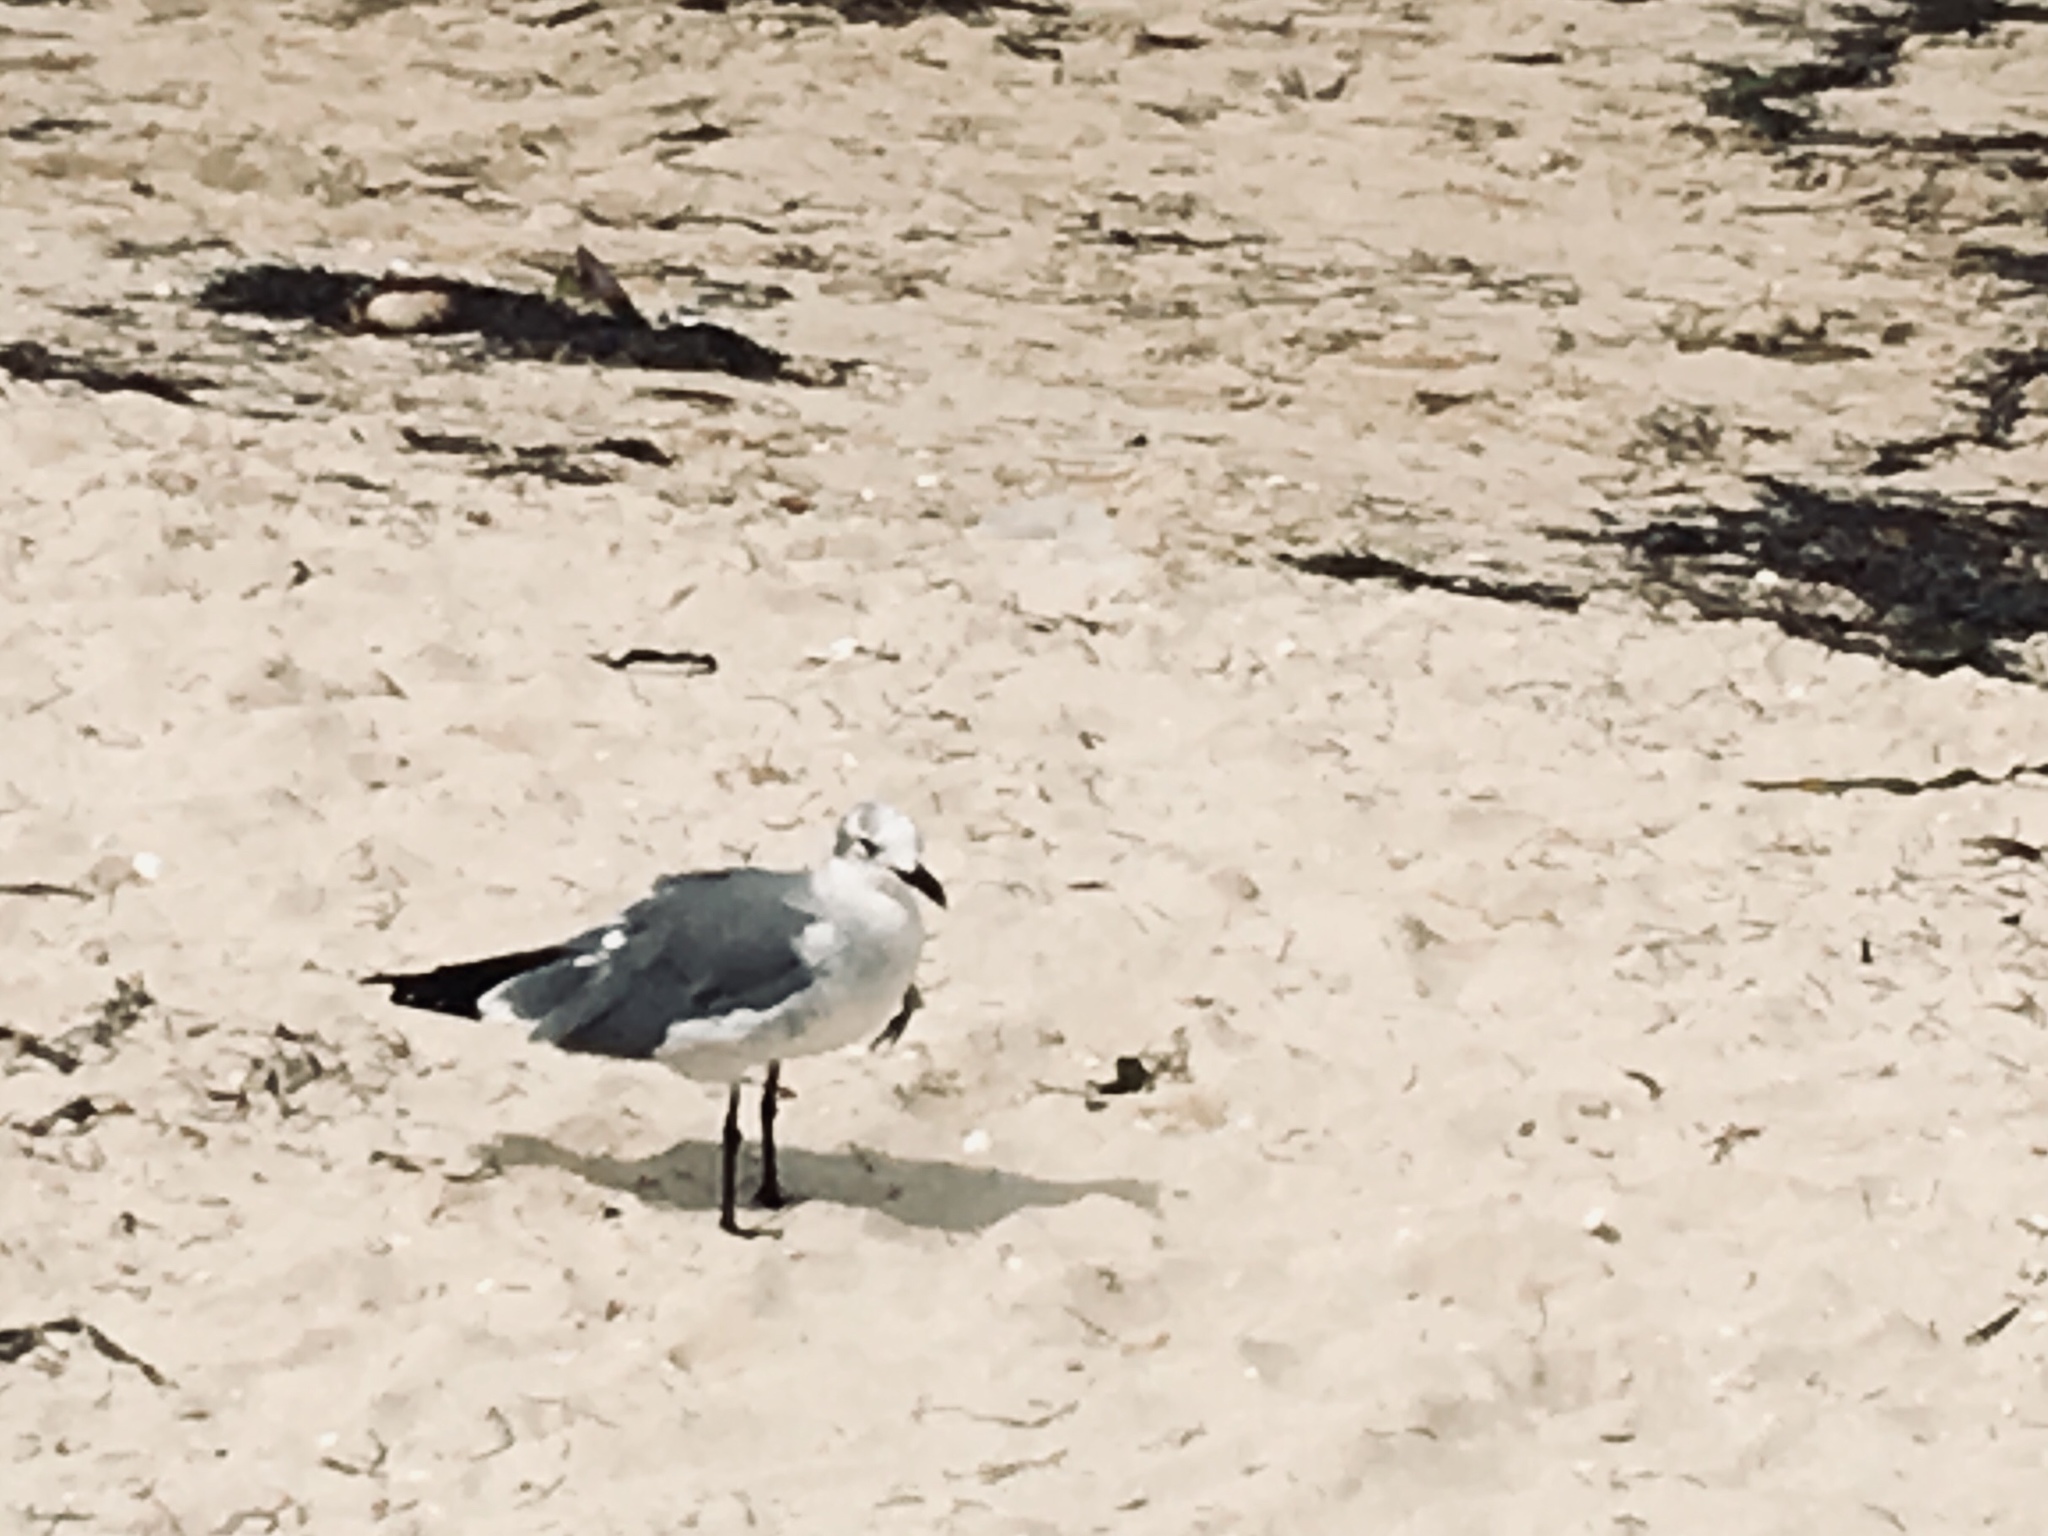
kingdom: Animalia
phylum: Chordata
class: Aves
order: Charadriiformes
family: Laridae
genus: Leucophaeus
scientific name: Leucophaeus atricilla
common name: Laughing gull
